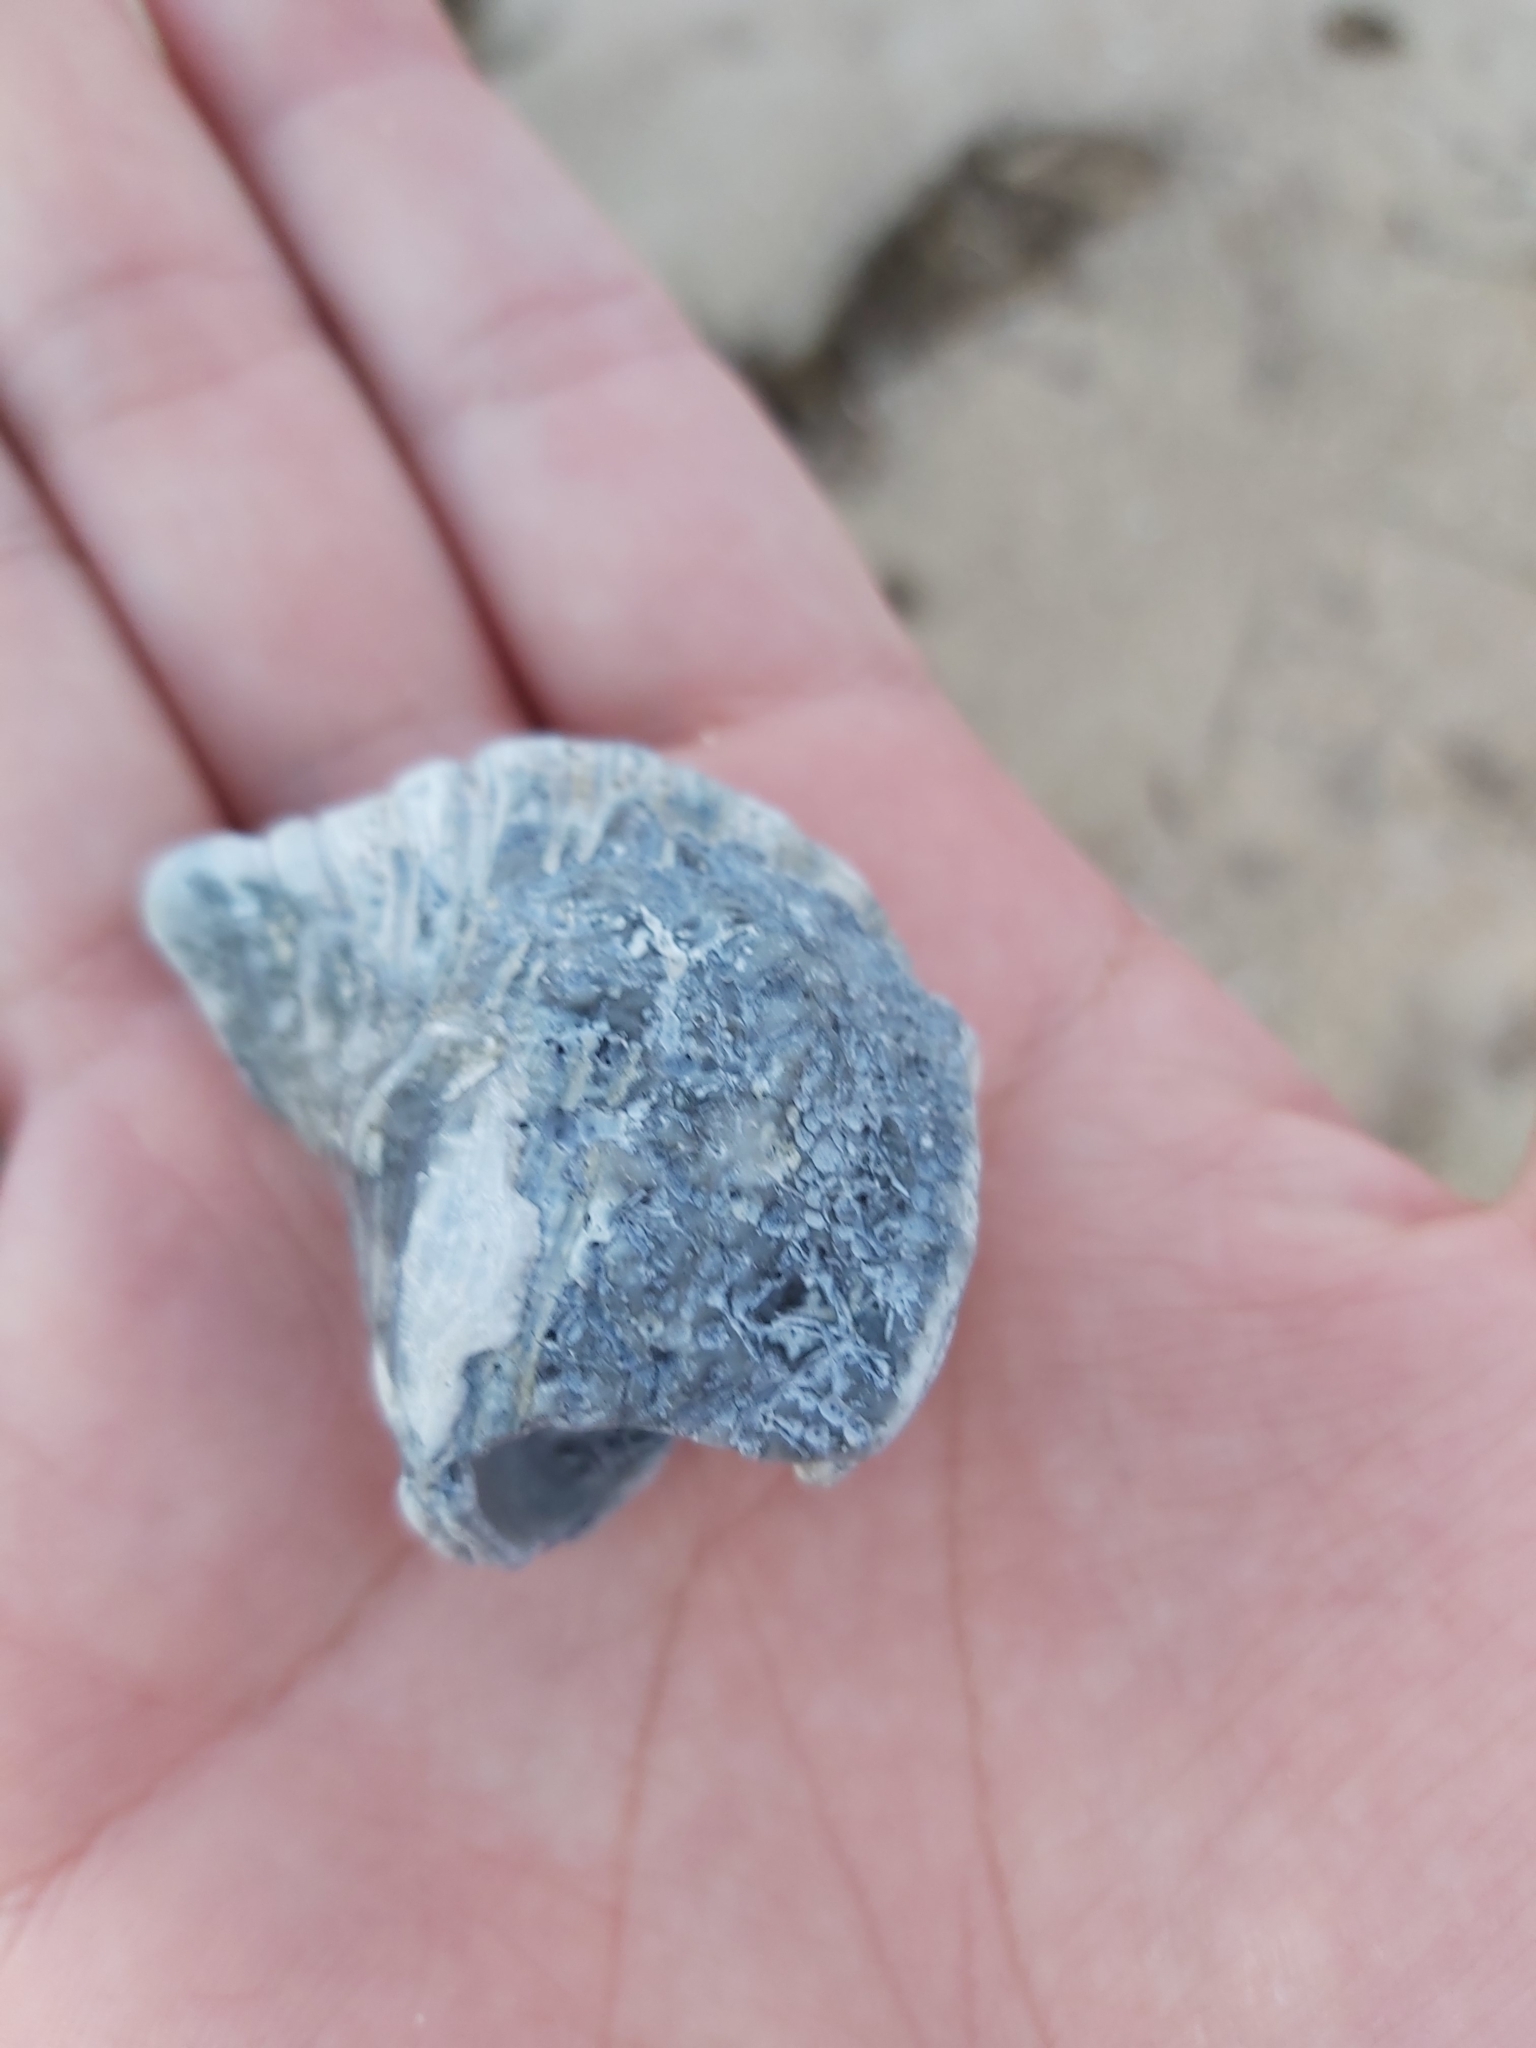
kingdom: Animalia
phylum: Mollusca
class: Gastropoda
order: Littorinimorpha
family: Cymatiidae
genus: Cabestana
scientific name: Cabestana spengleri
